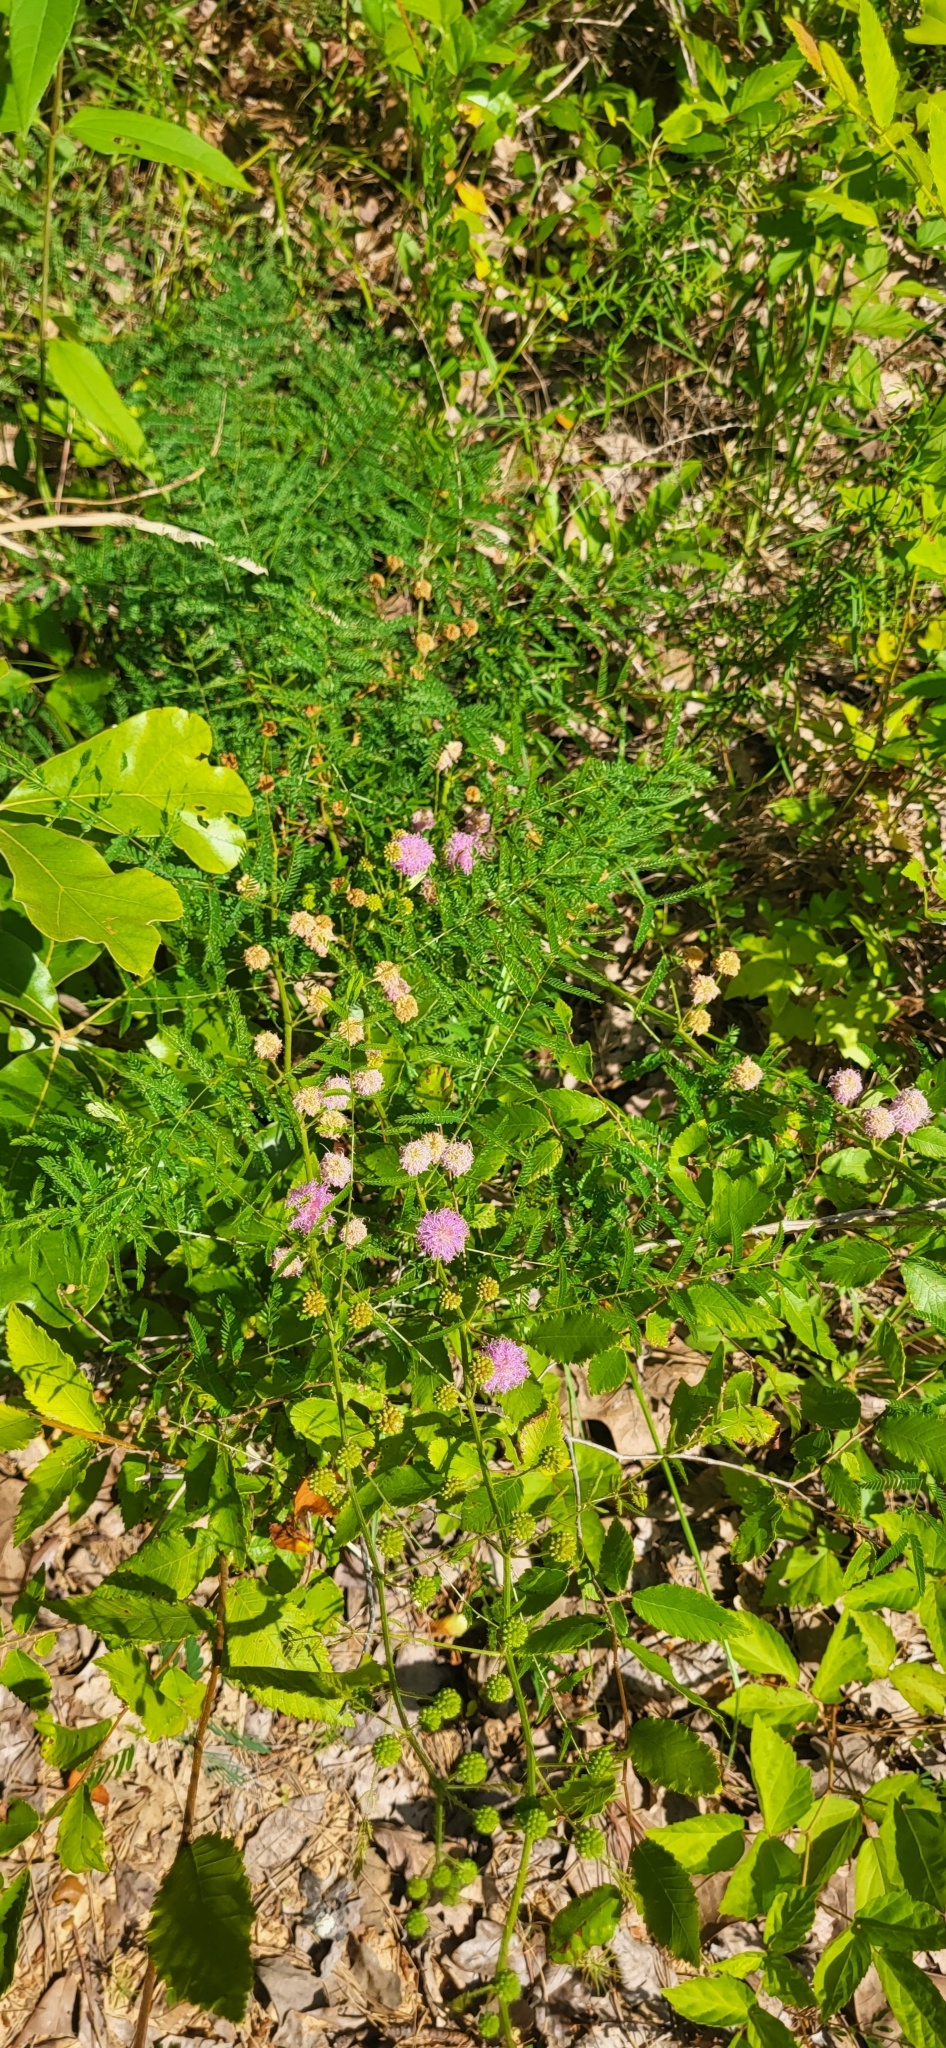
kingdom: Plantae
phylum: Tracheophyta
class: Magnoliopsida
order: Fabales
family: Fabaceae
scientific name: Fabaceae
